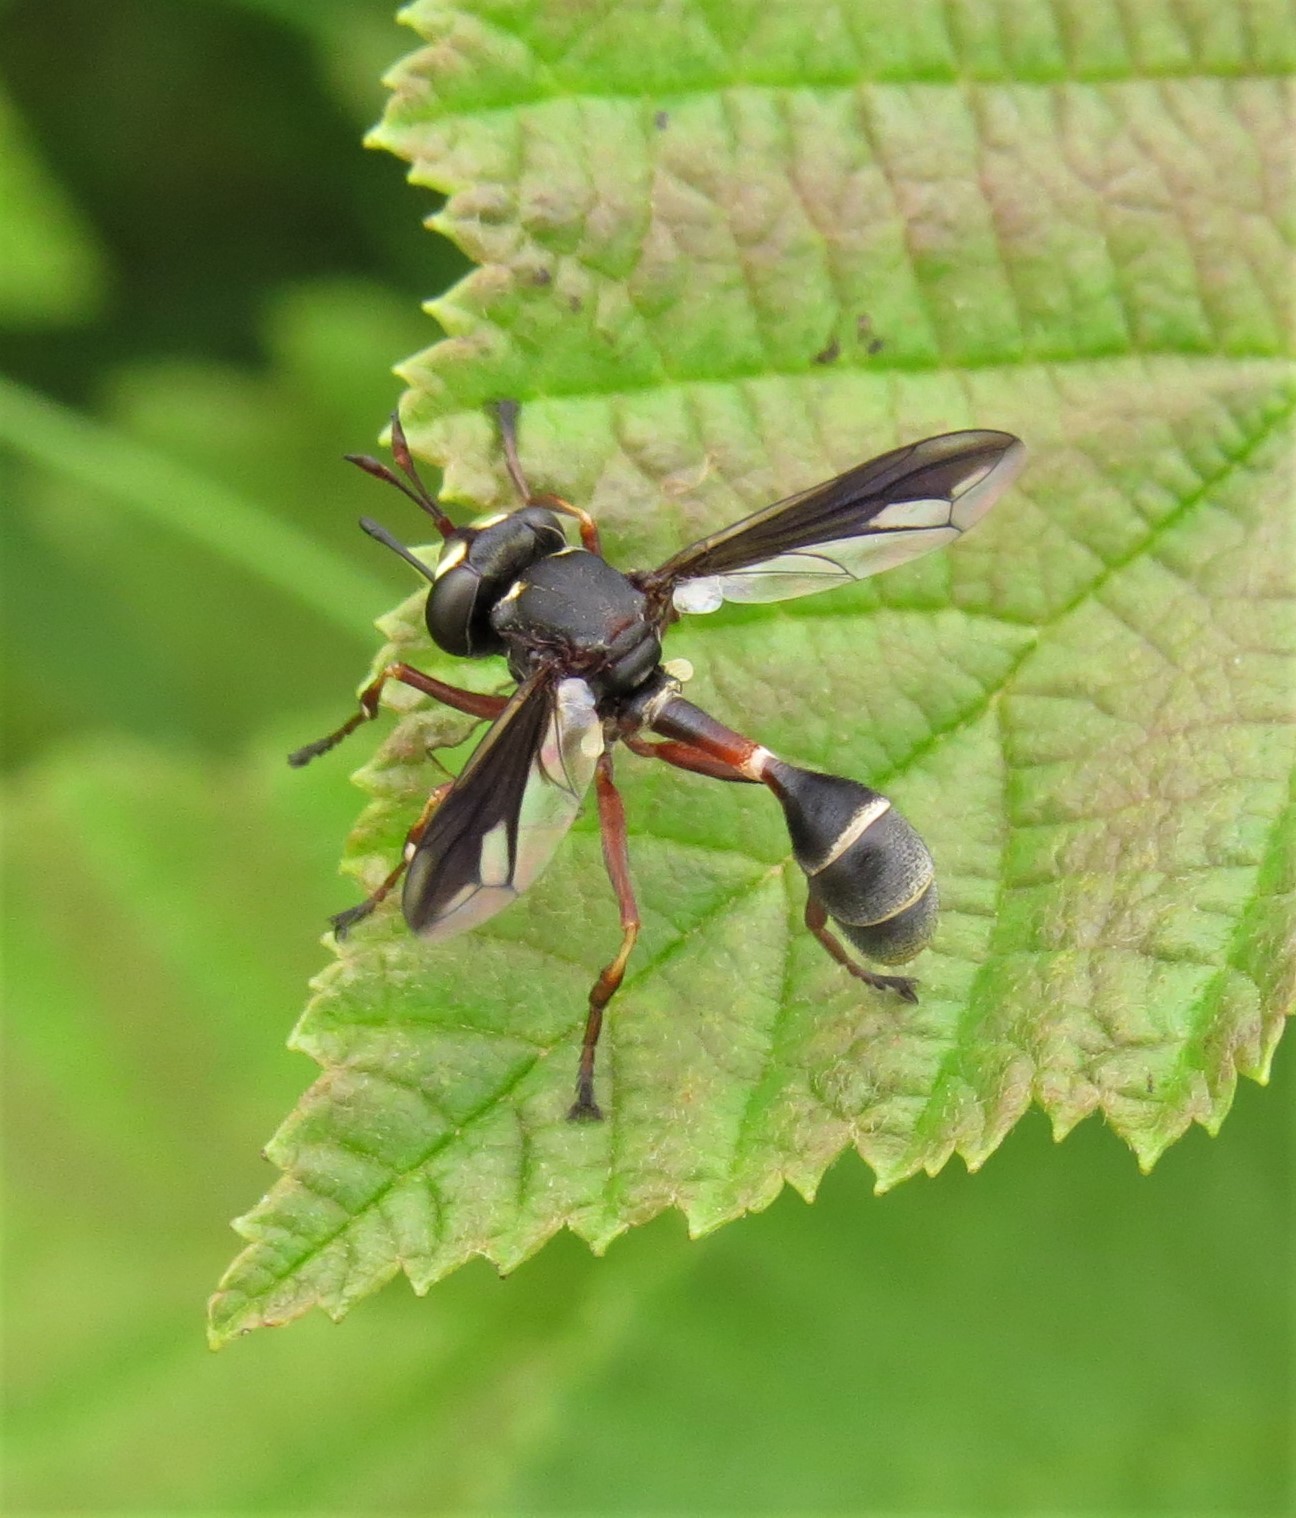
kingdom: Animalia
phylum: Arthropoda
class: Insecta
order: Diptera
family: Conopidae
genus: Physocephala
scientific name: Physocephala furcillata
